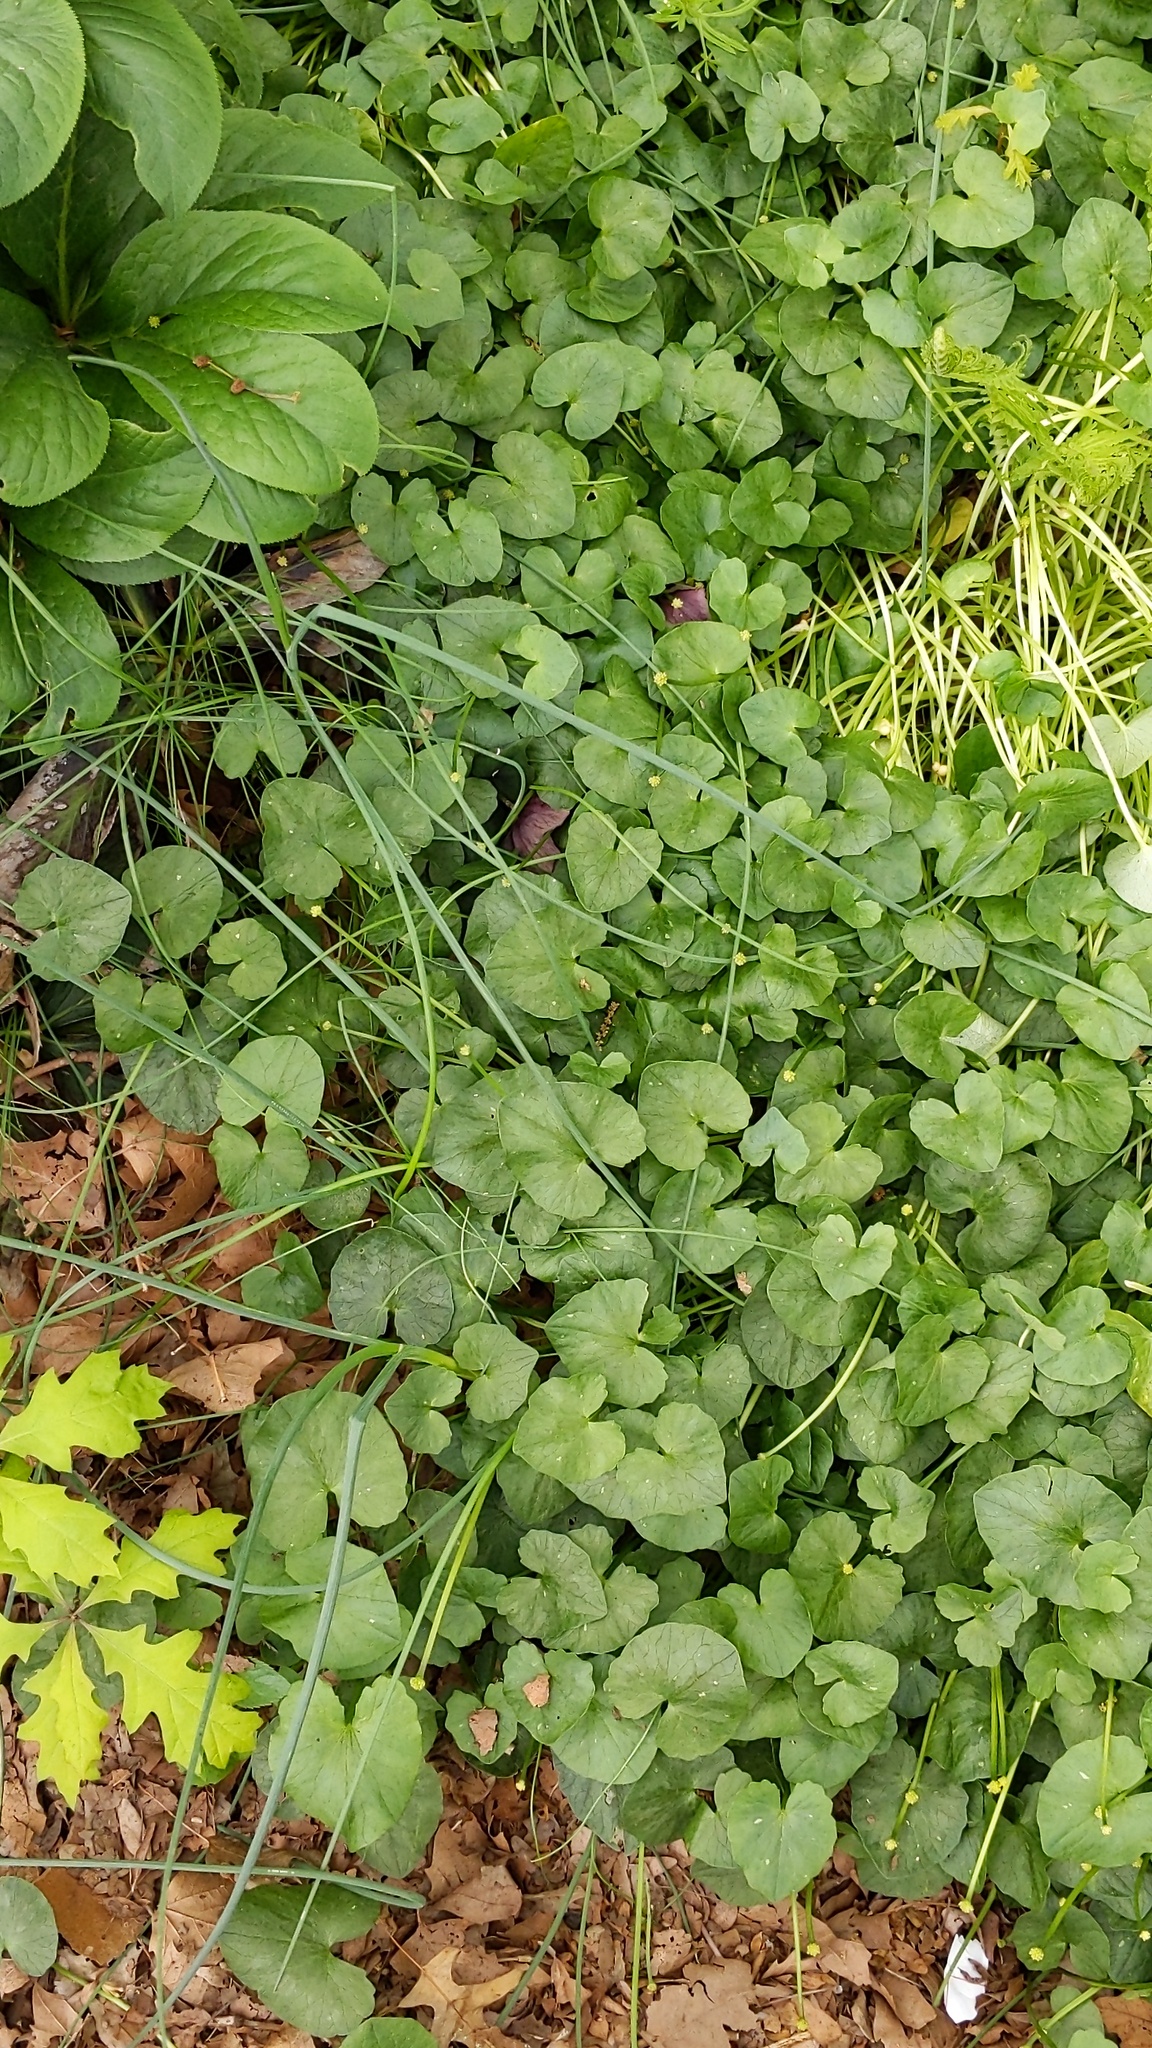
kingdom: Plantae
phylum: Tracheophyta
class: Magnoliopsida
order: Ranunculales
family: Ranunculaceae
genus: Ficaria
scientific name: Ficaria verna
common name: Lesser celandine
